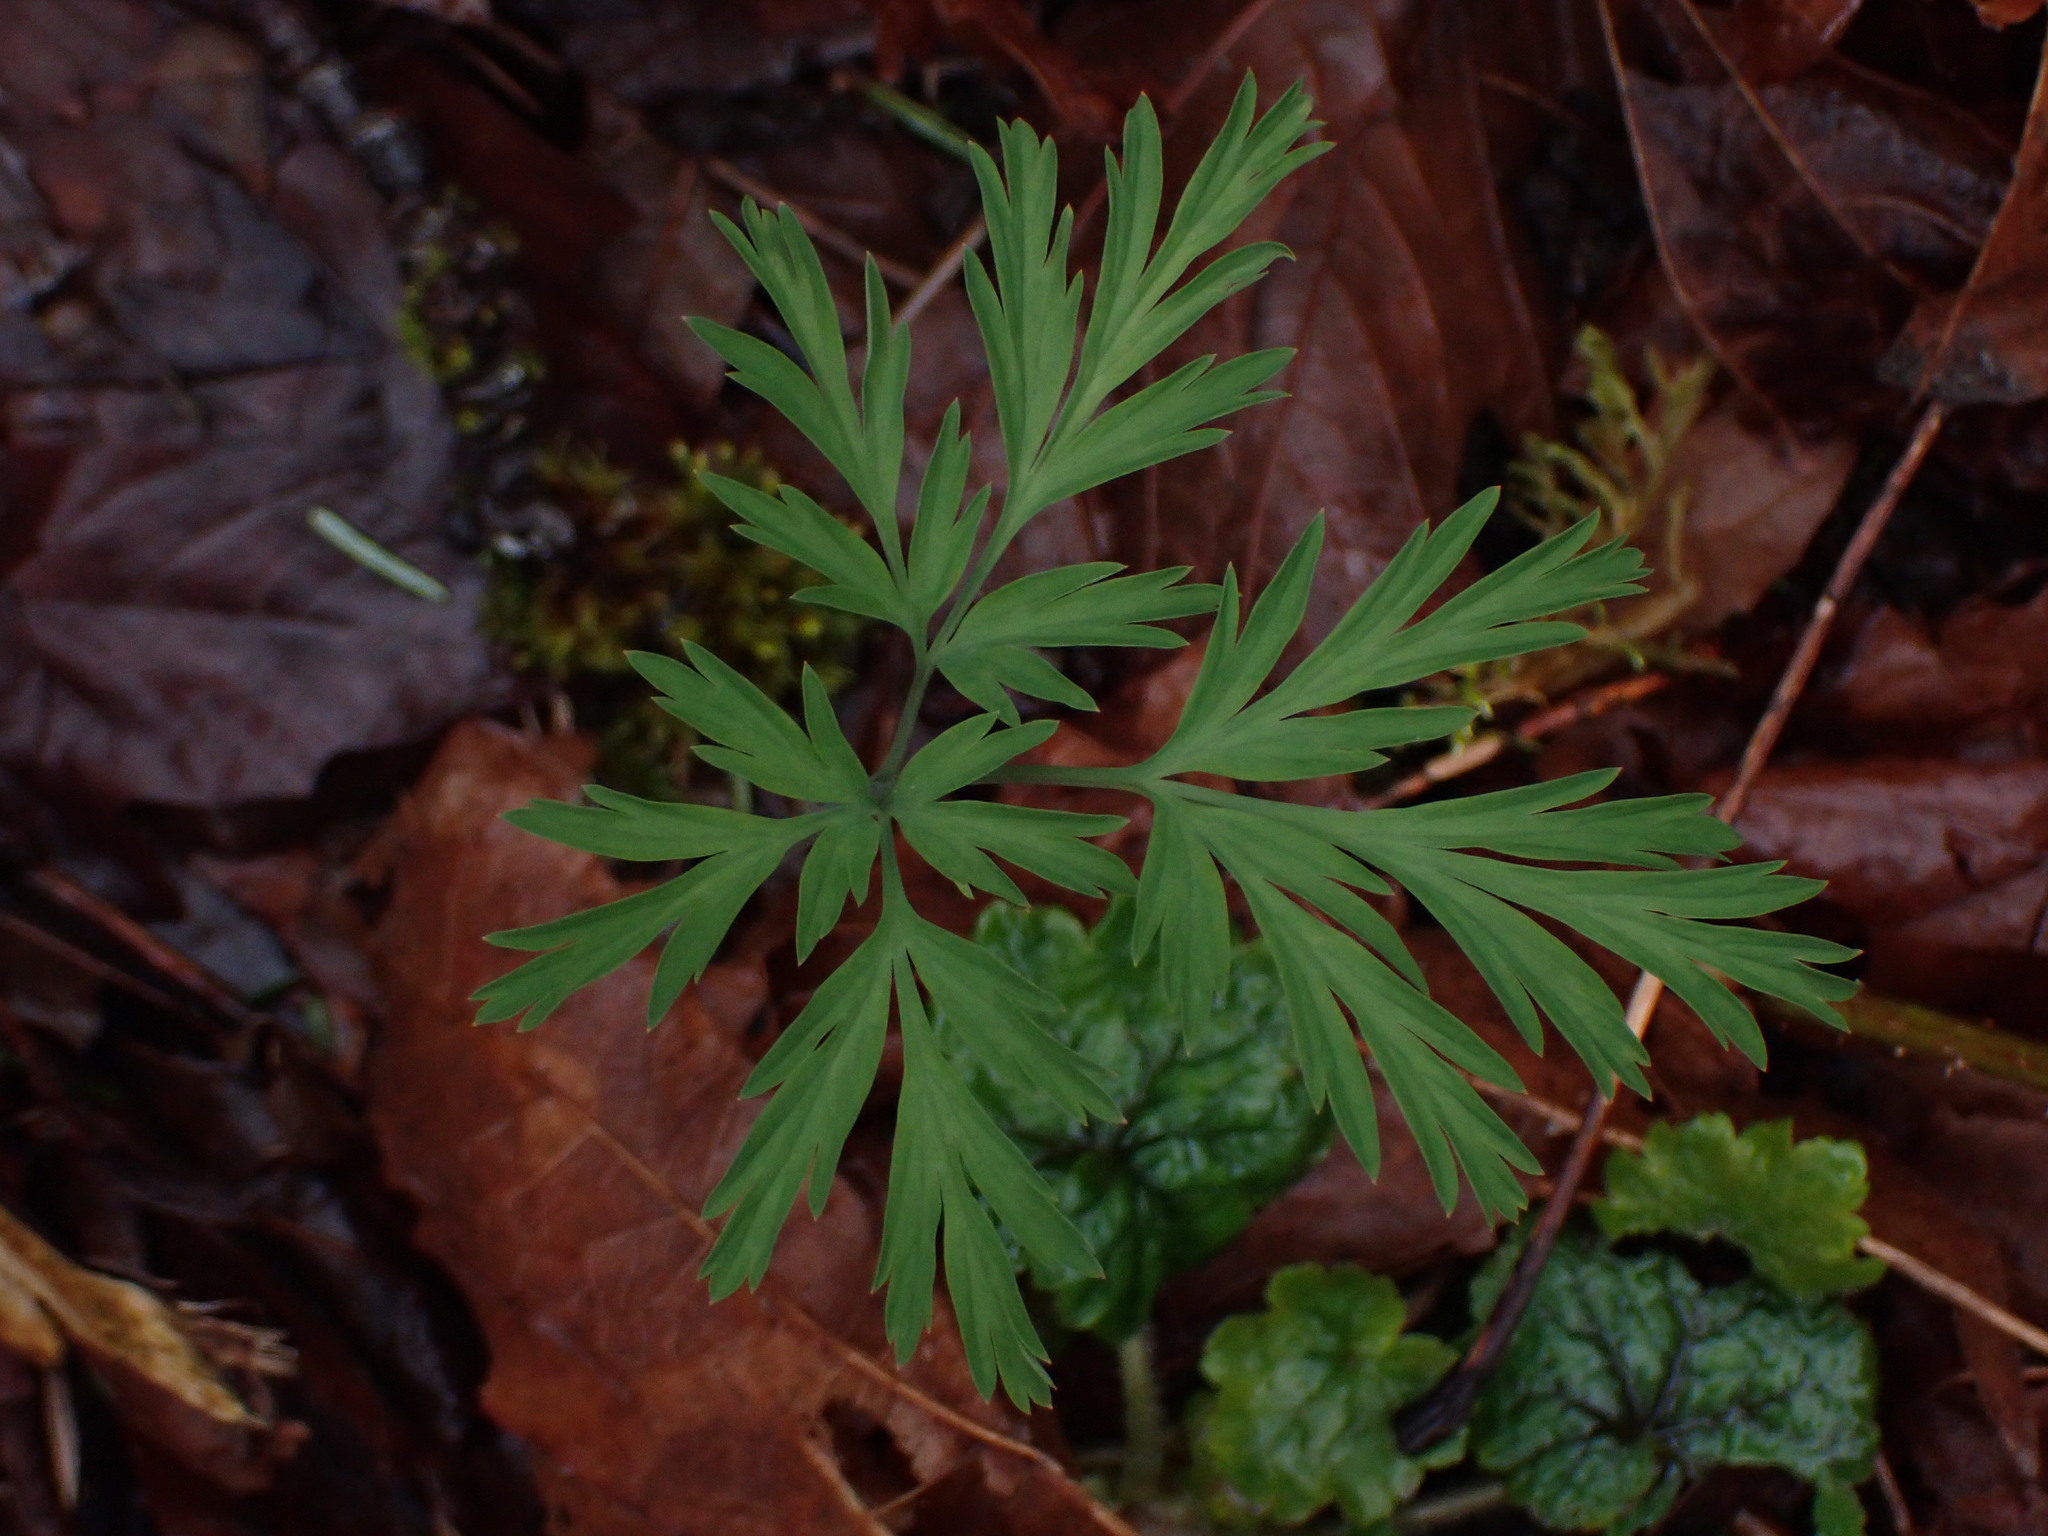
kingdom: Plantae
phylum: Tracheophyta
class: Magnoliopsida
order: Ranunculales
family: Papaveraceae
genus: Dicentra
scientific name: Dicentra formosa
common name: Bleeding-heart
